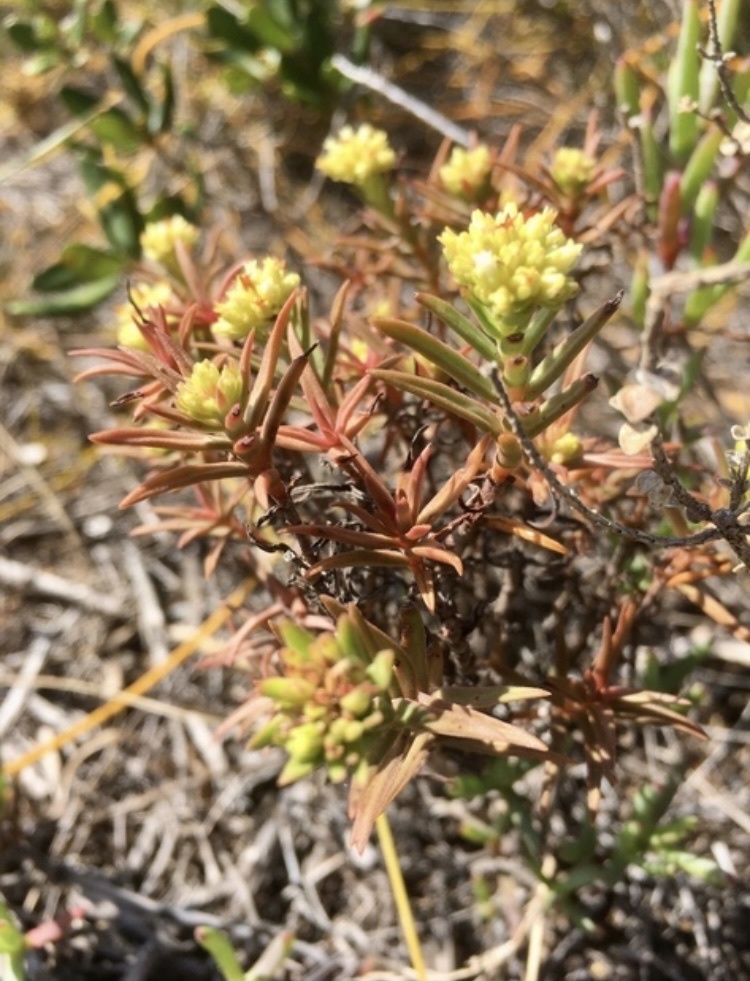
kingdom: Plantae
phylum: Tracheophyta
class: Magnoliopsida
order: Saxifragales
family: Crassulaceae
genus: Crassula
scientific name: Crassula subulata
